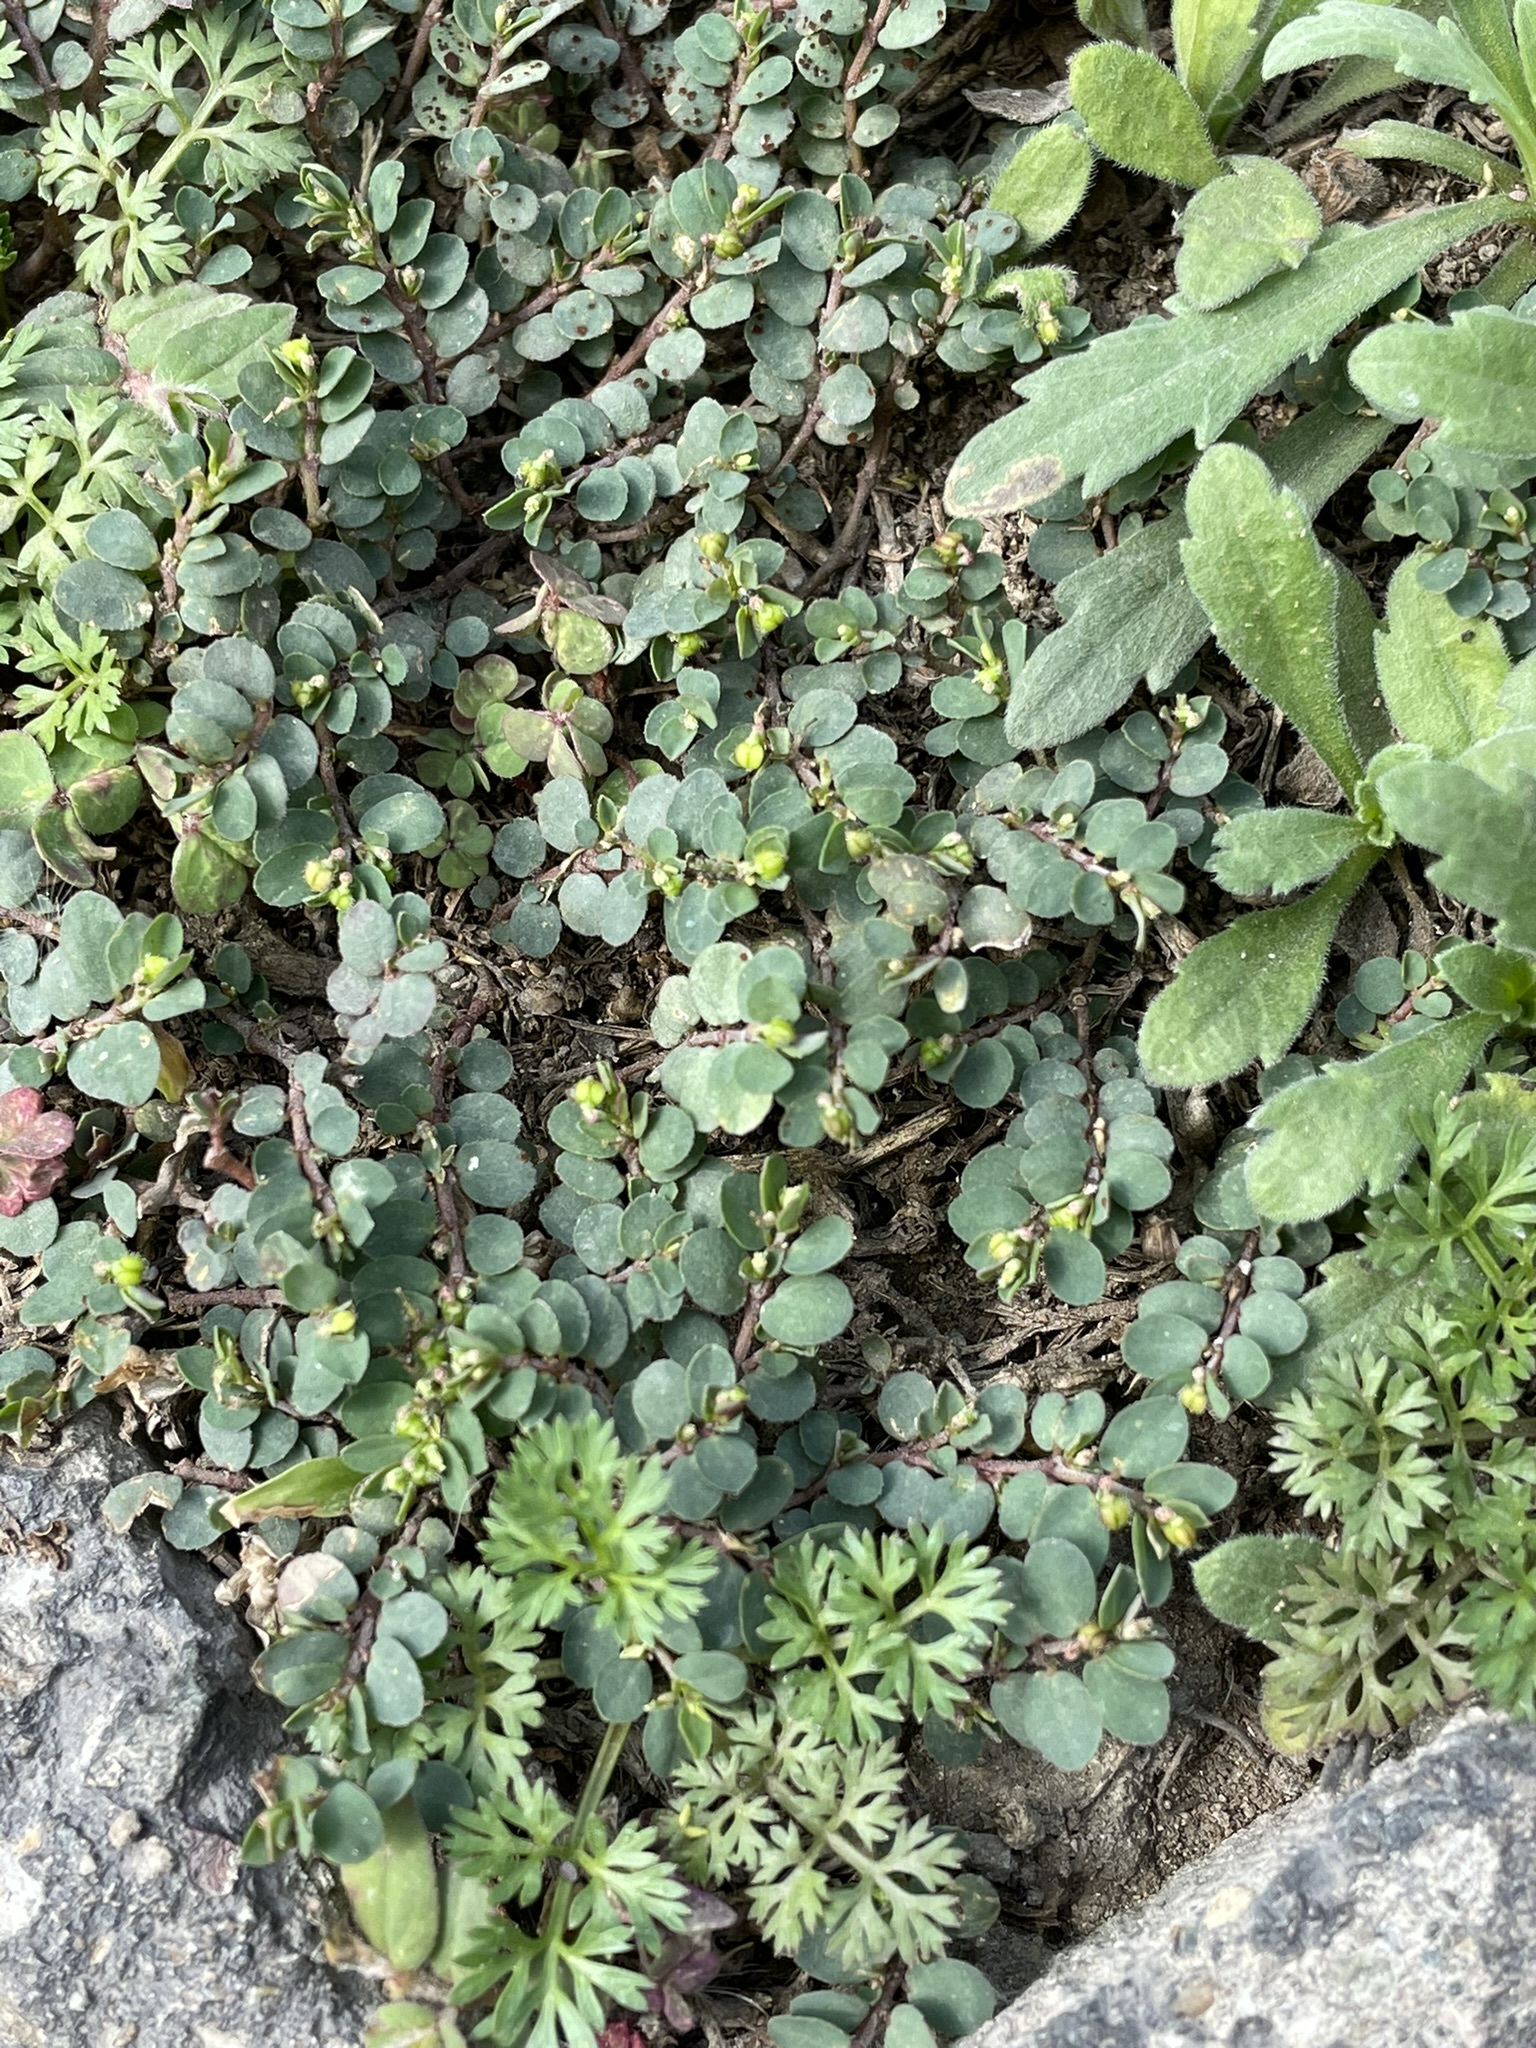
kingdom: Plantae
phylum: Tracheophyta
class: Magnoliopsida
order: Malpighiales
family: Euphorbiaceae
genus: Euphorbia
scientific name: Euphorbia prostrata
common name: Prostrate sandmat
